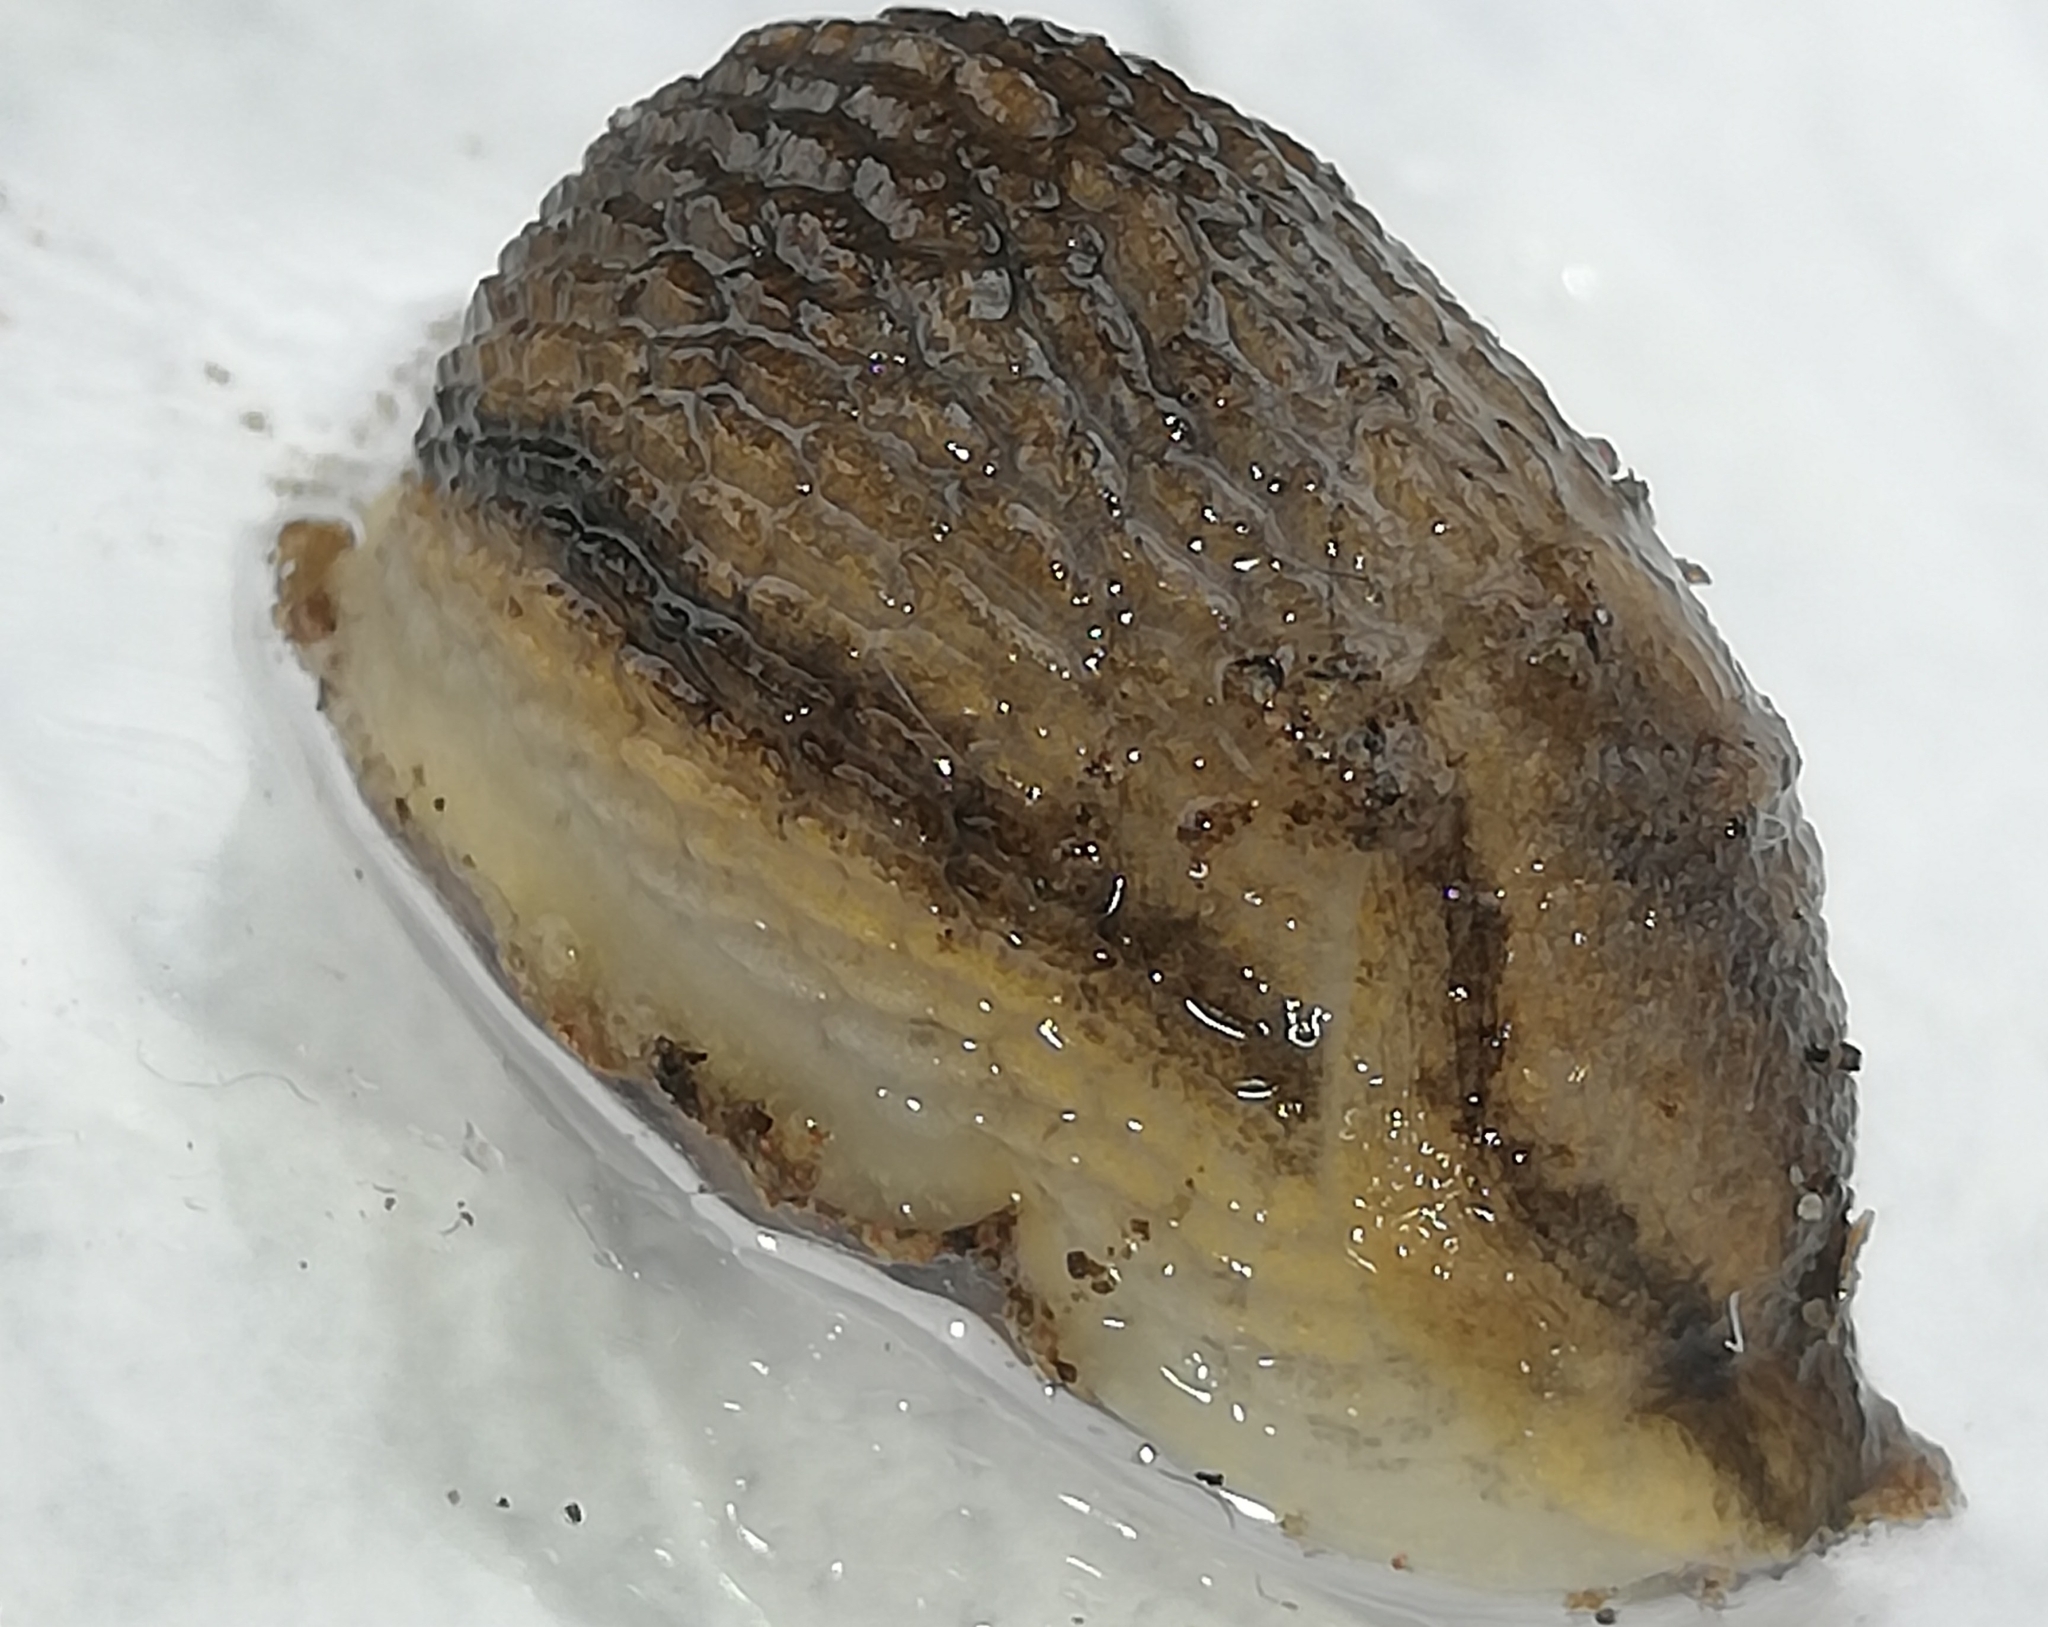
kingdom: Animalia
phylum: Mollusca
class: Gastropoda
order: Stylommatophora
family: Arionidae
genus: Arion
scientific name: Arion fasciatus
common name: Orange-banded arion
